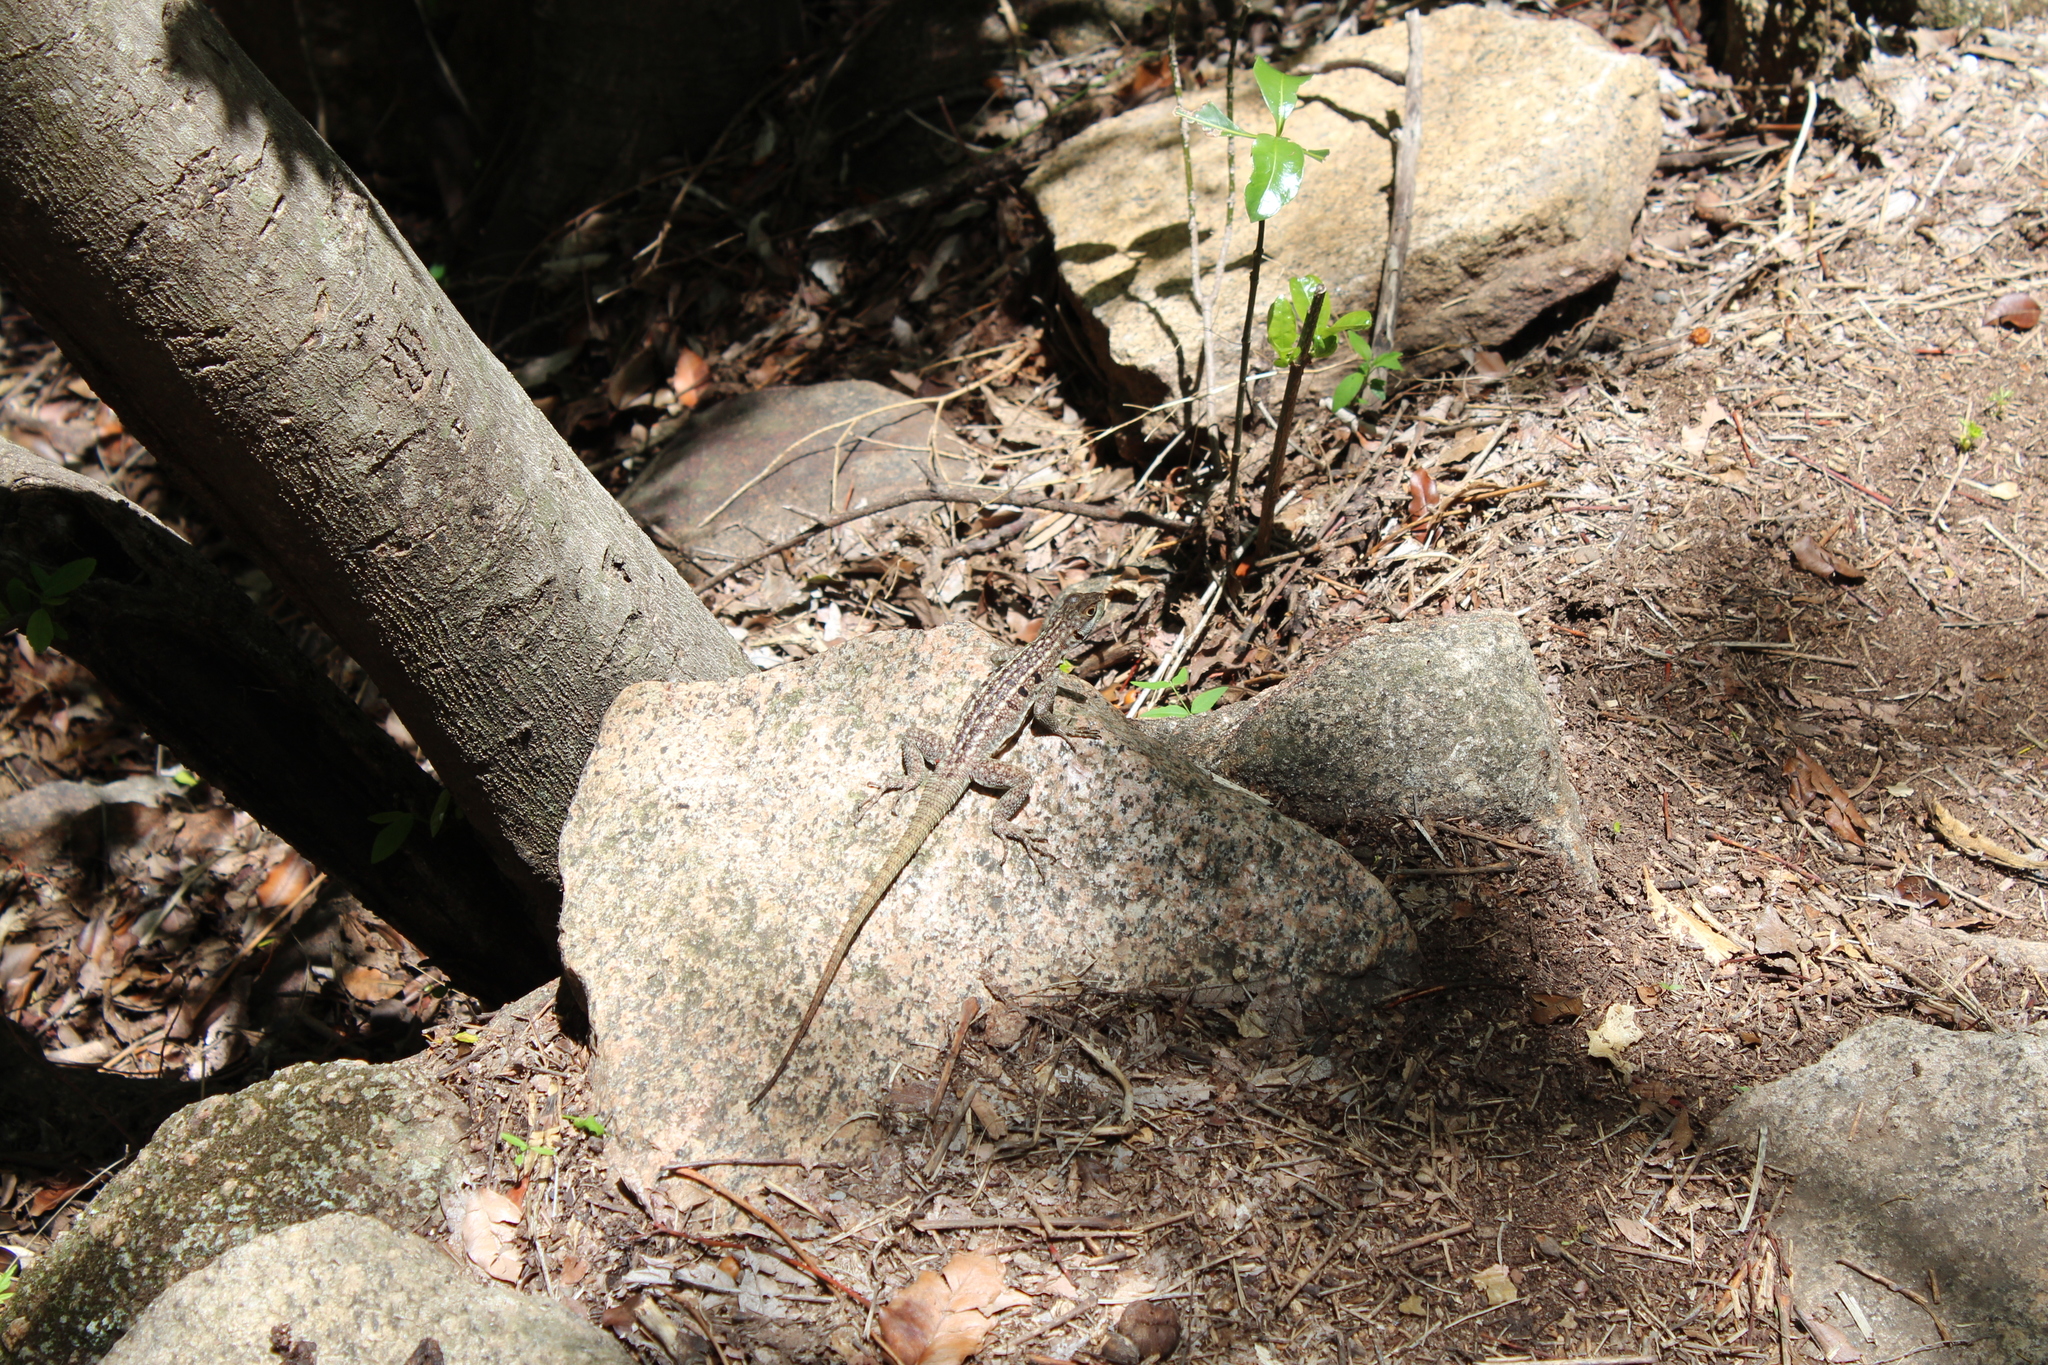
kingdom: Animalia
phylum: Chordata
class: Squamata
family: Opluridae
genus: Oplurus
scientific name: Oplurus quadrimaculatus
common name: Duméril's madagascar swift
